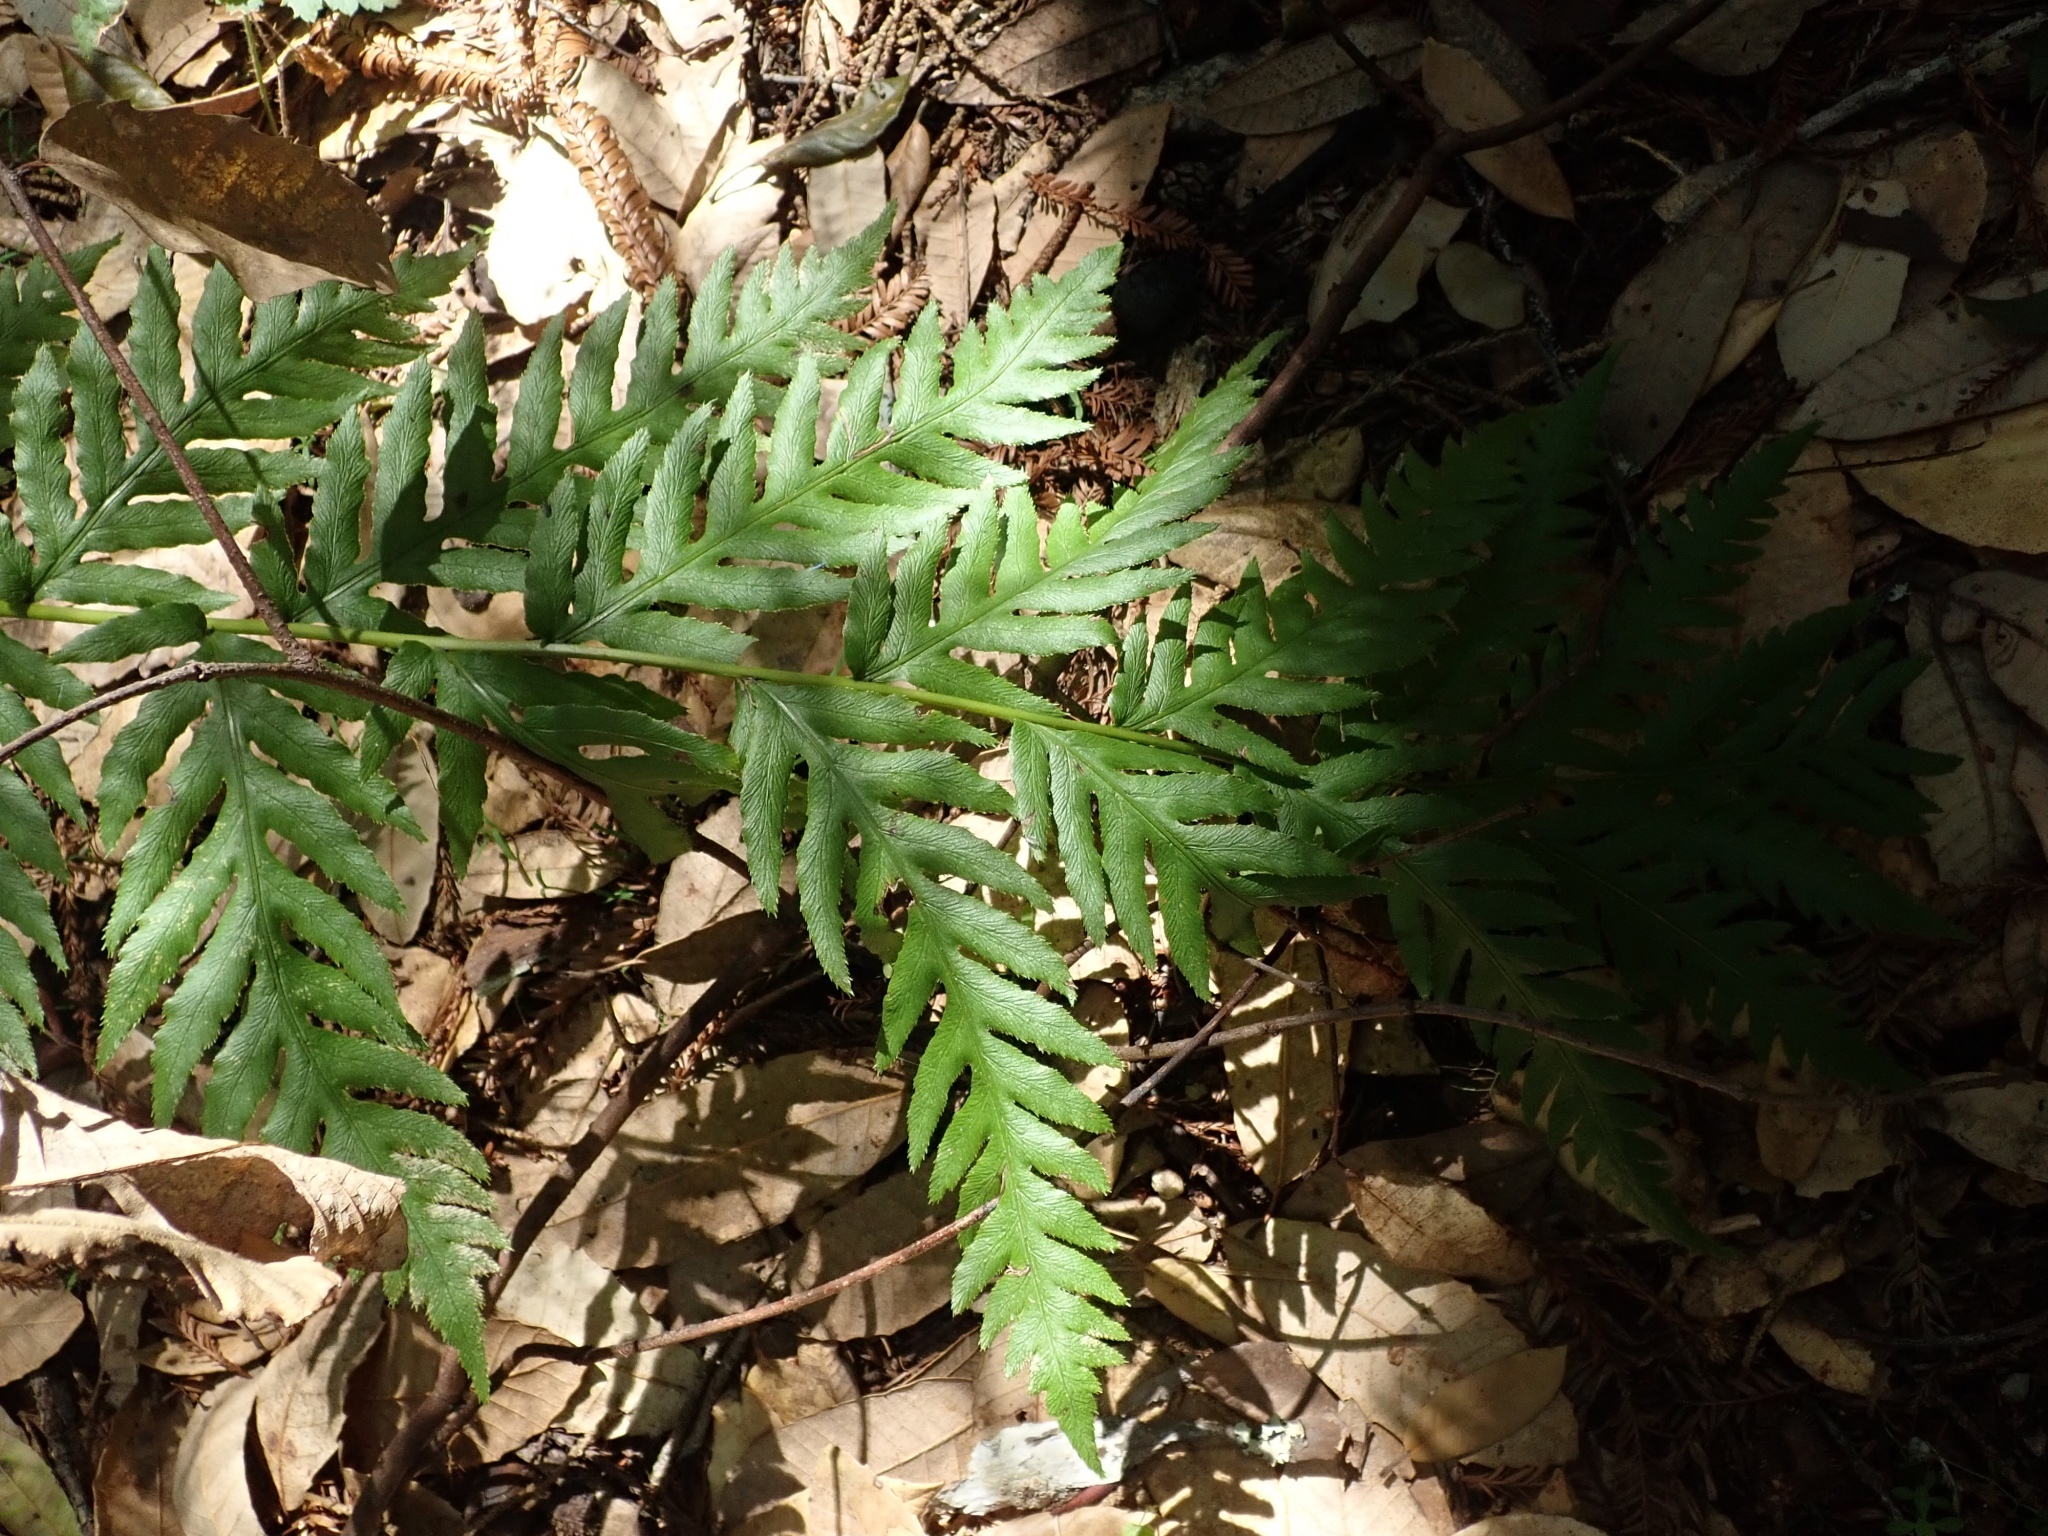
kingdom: Plantae
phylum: Tracheophyta
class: Polypodiopsida
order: Polypodiales
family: Blechnaceae
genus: Woodwardia
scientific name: Woodwardia fimbriata
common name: Giant chain fern
